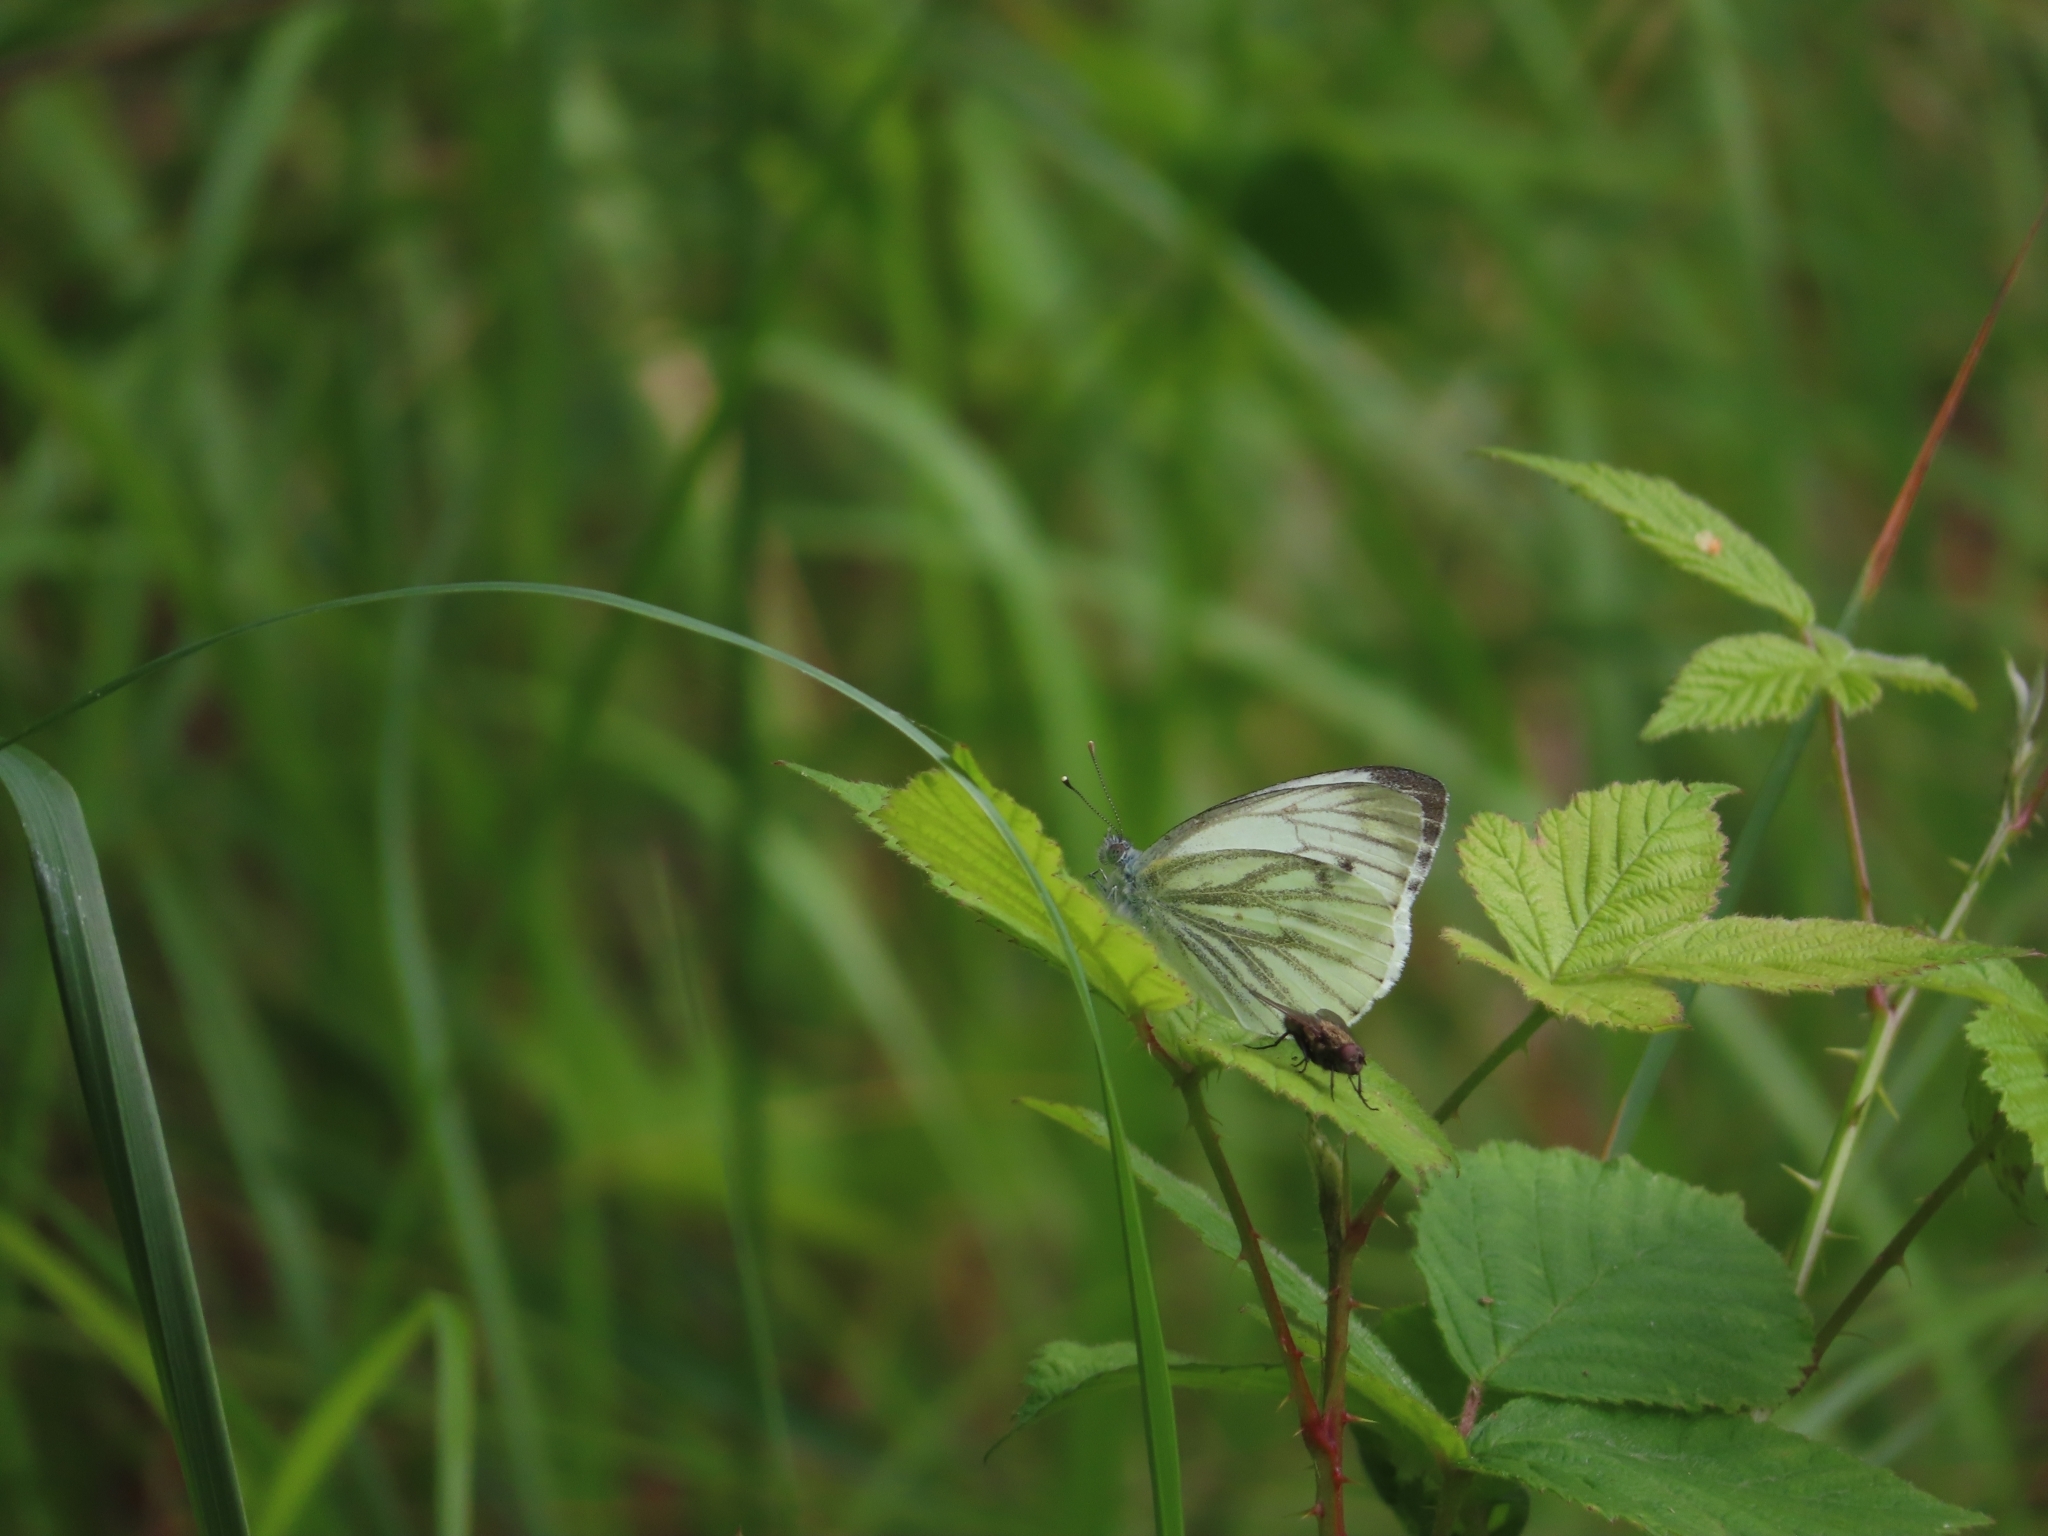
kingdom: Animalia
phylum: Arthropoda
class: Insecta
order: Lepidoptera
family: Pieridae
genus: Pieris
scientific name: Pieris napi
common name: Green-veined white
